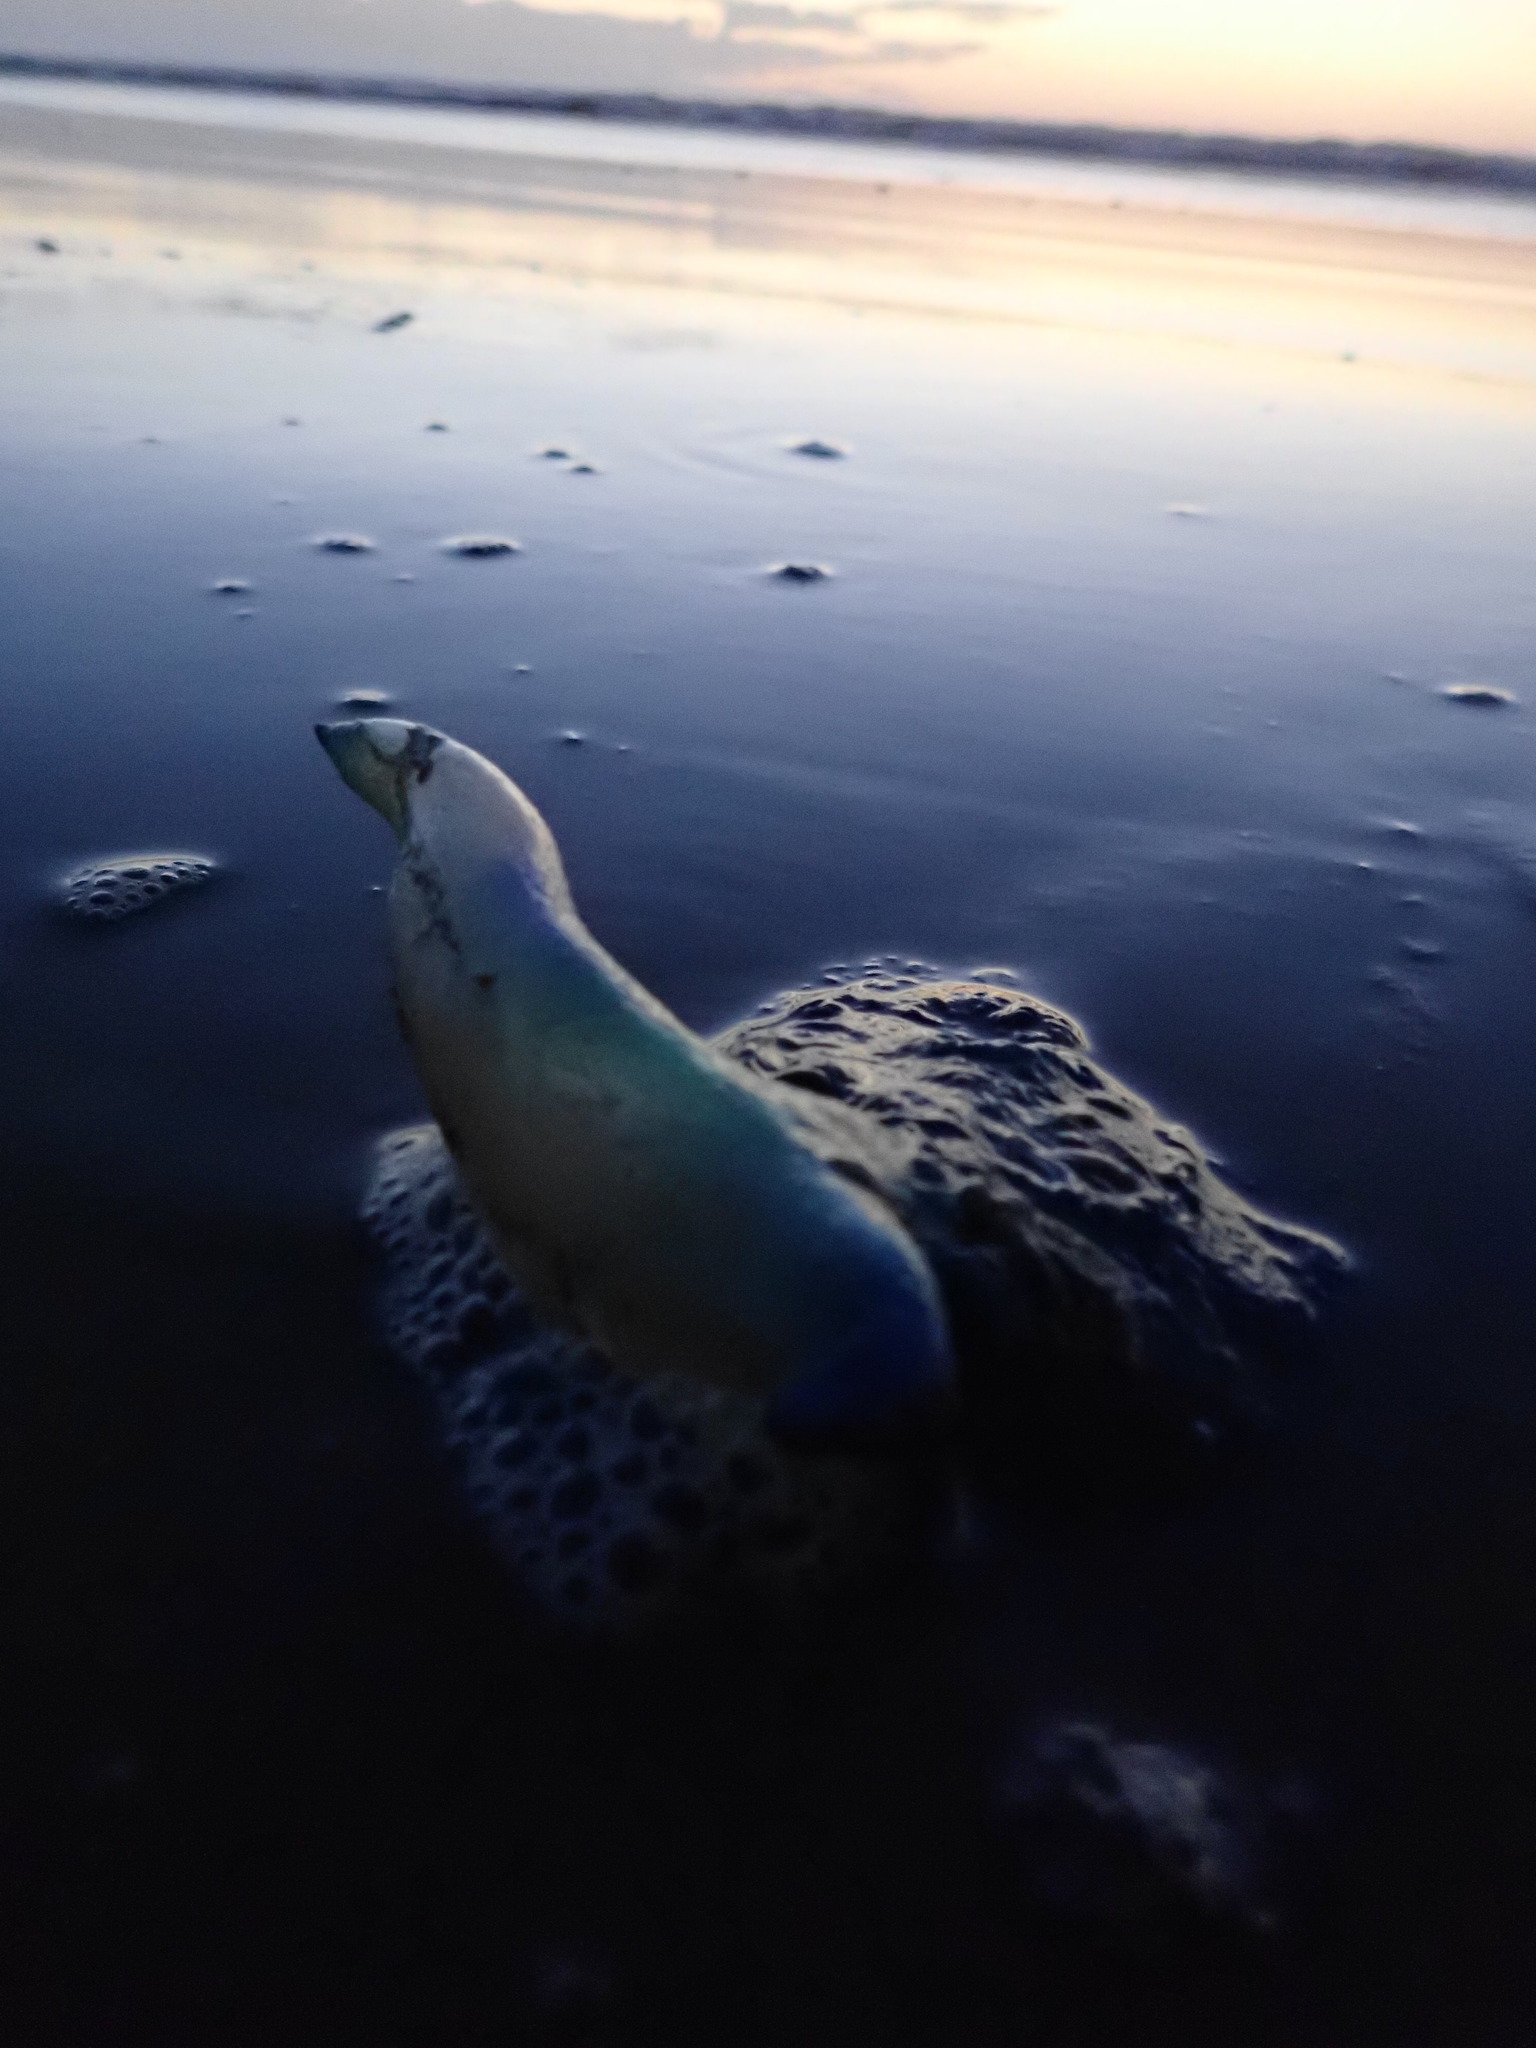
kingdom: Animalia
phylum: Cnidaria
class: Hydrozoa
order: Siphonophorae
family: Physaliidae
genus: Physalia
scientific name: Physalia physalis
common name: Portuguese man-of-war
